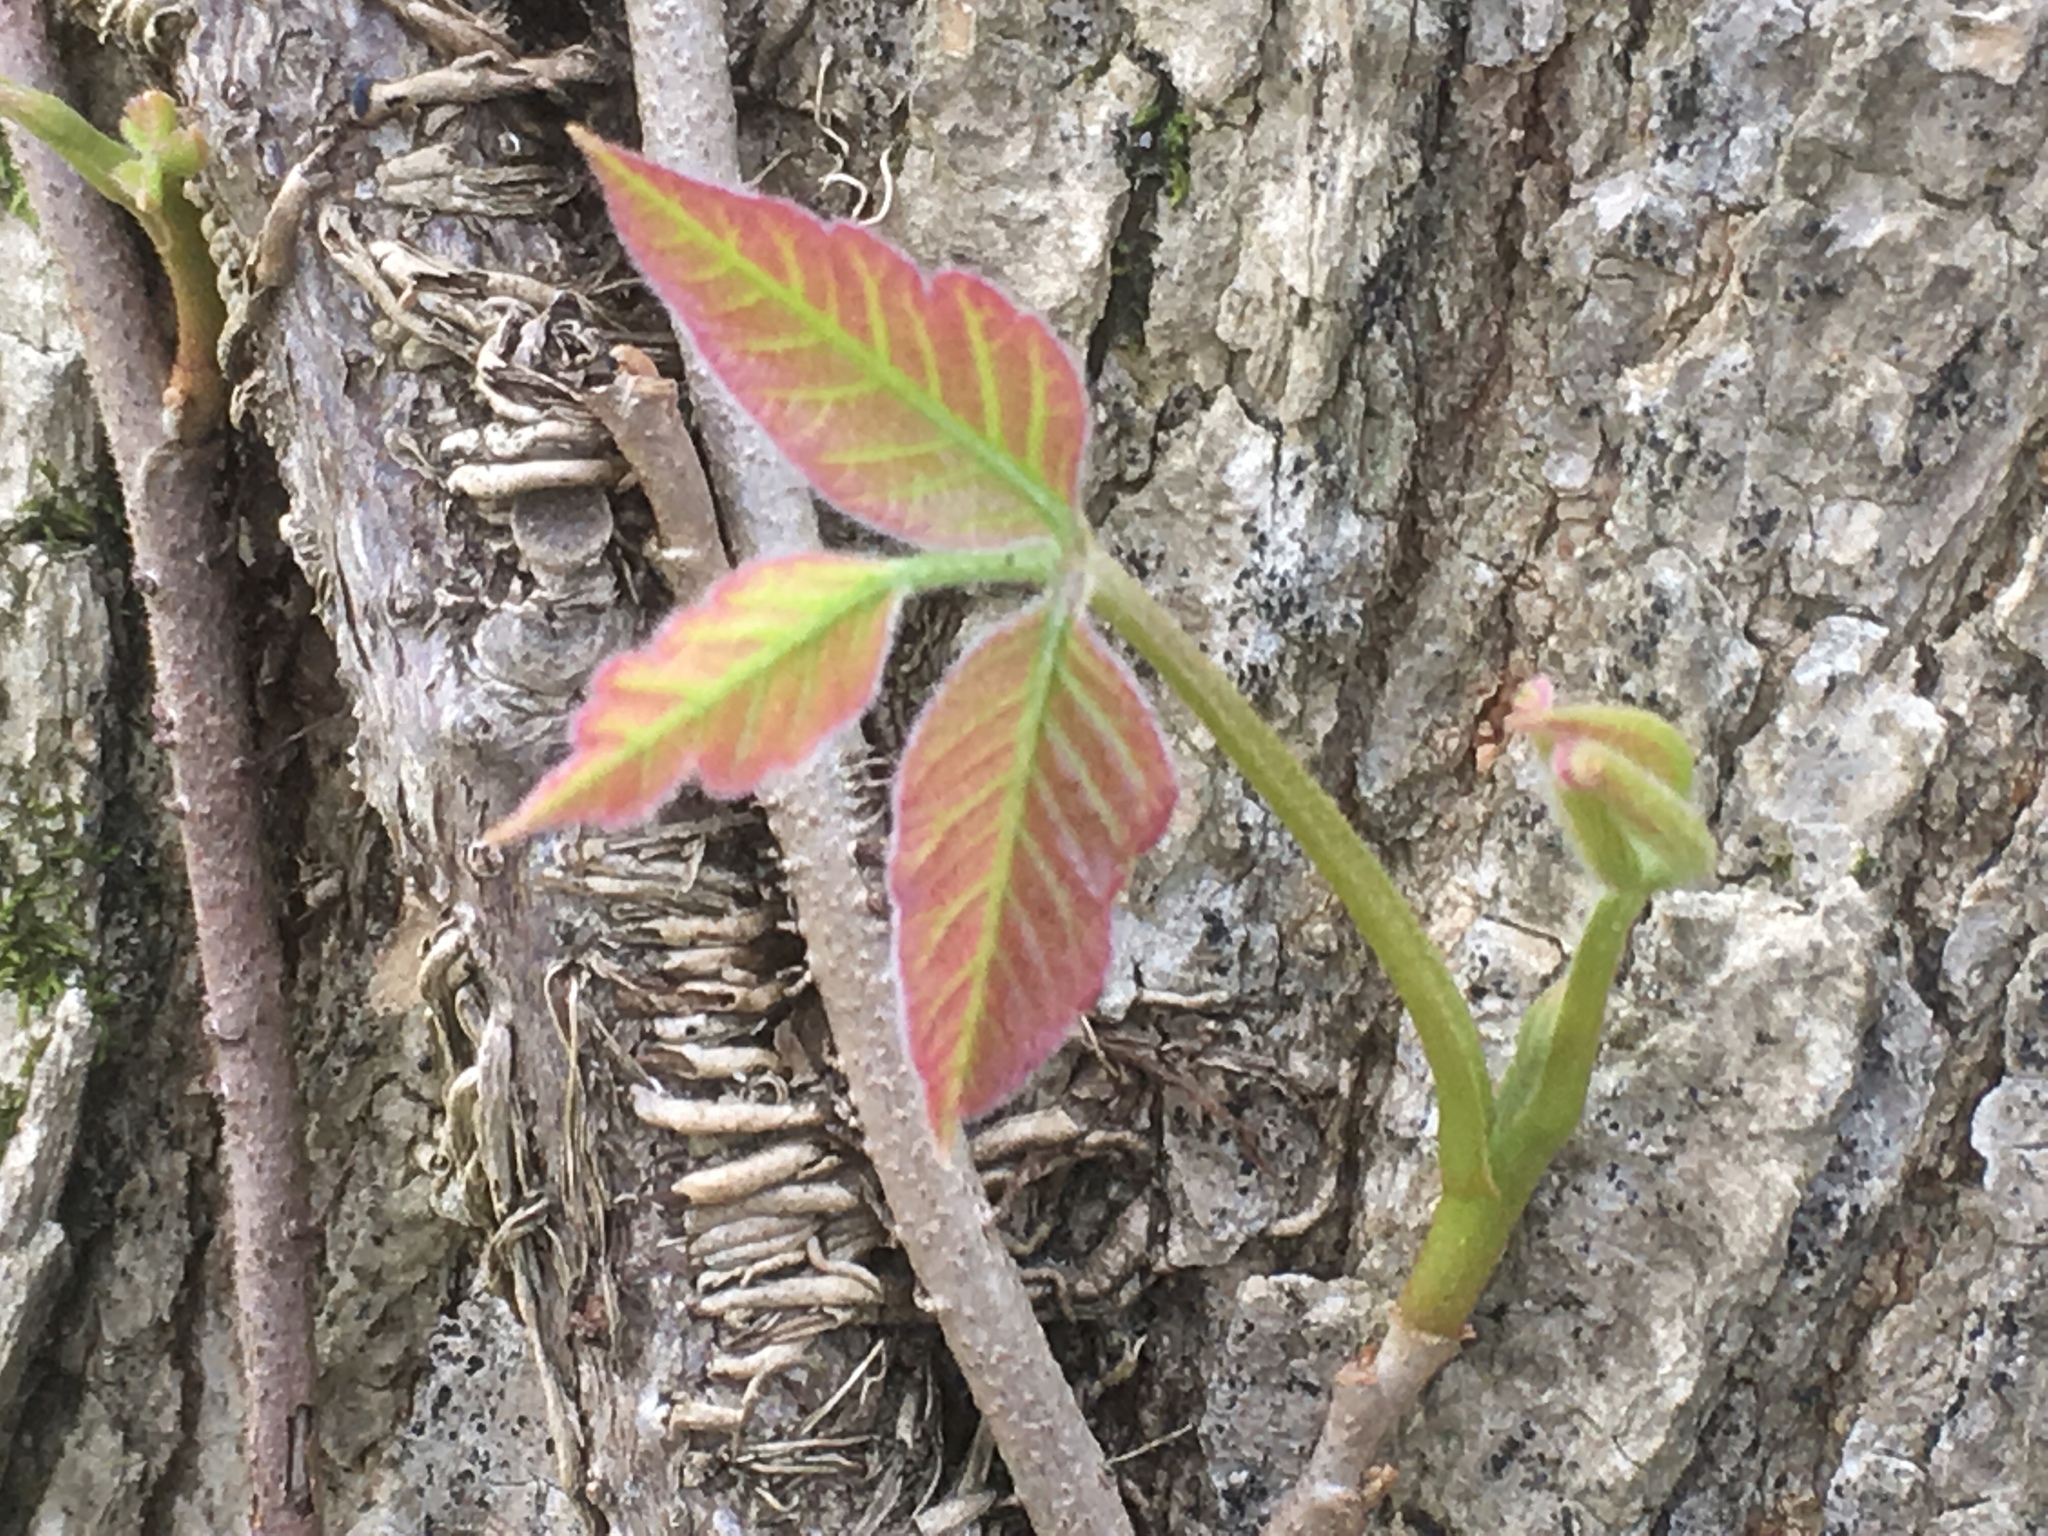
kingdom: Plantae
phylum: Tracheophyta
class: Magnoliopsida
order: Sapindales
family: Anacardiaceae
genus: Toxicodendron
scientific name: Toxicodendron radicans
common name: Poison ivy
